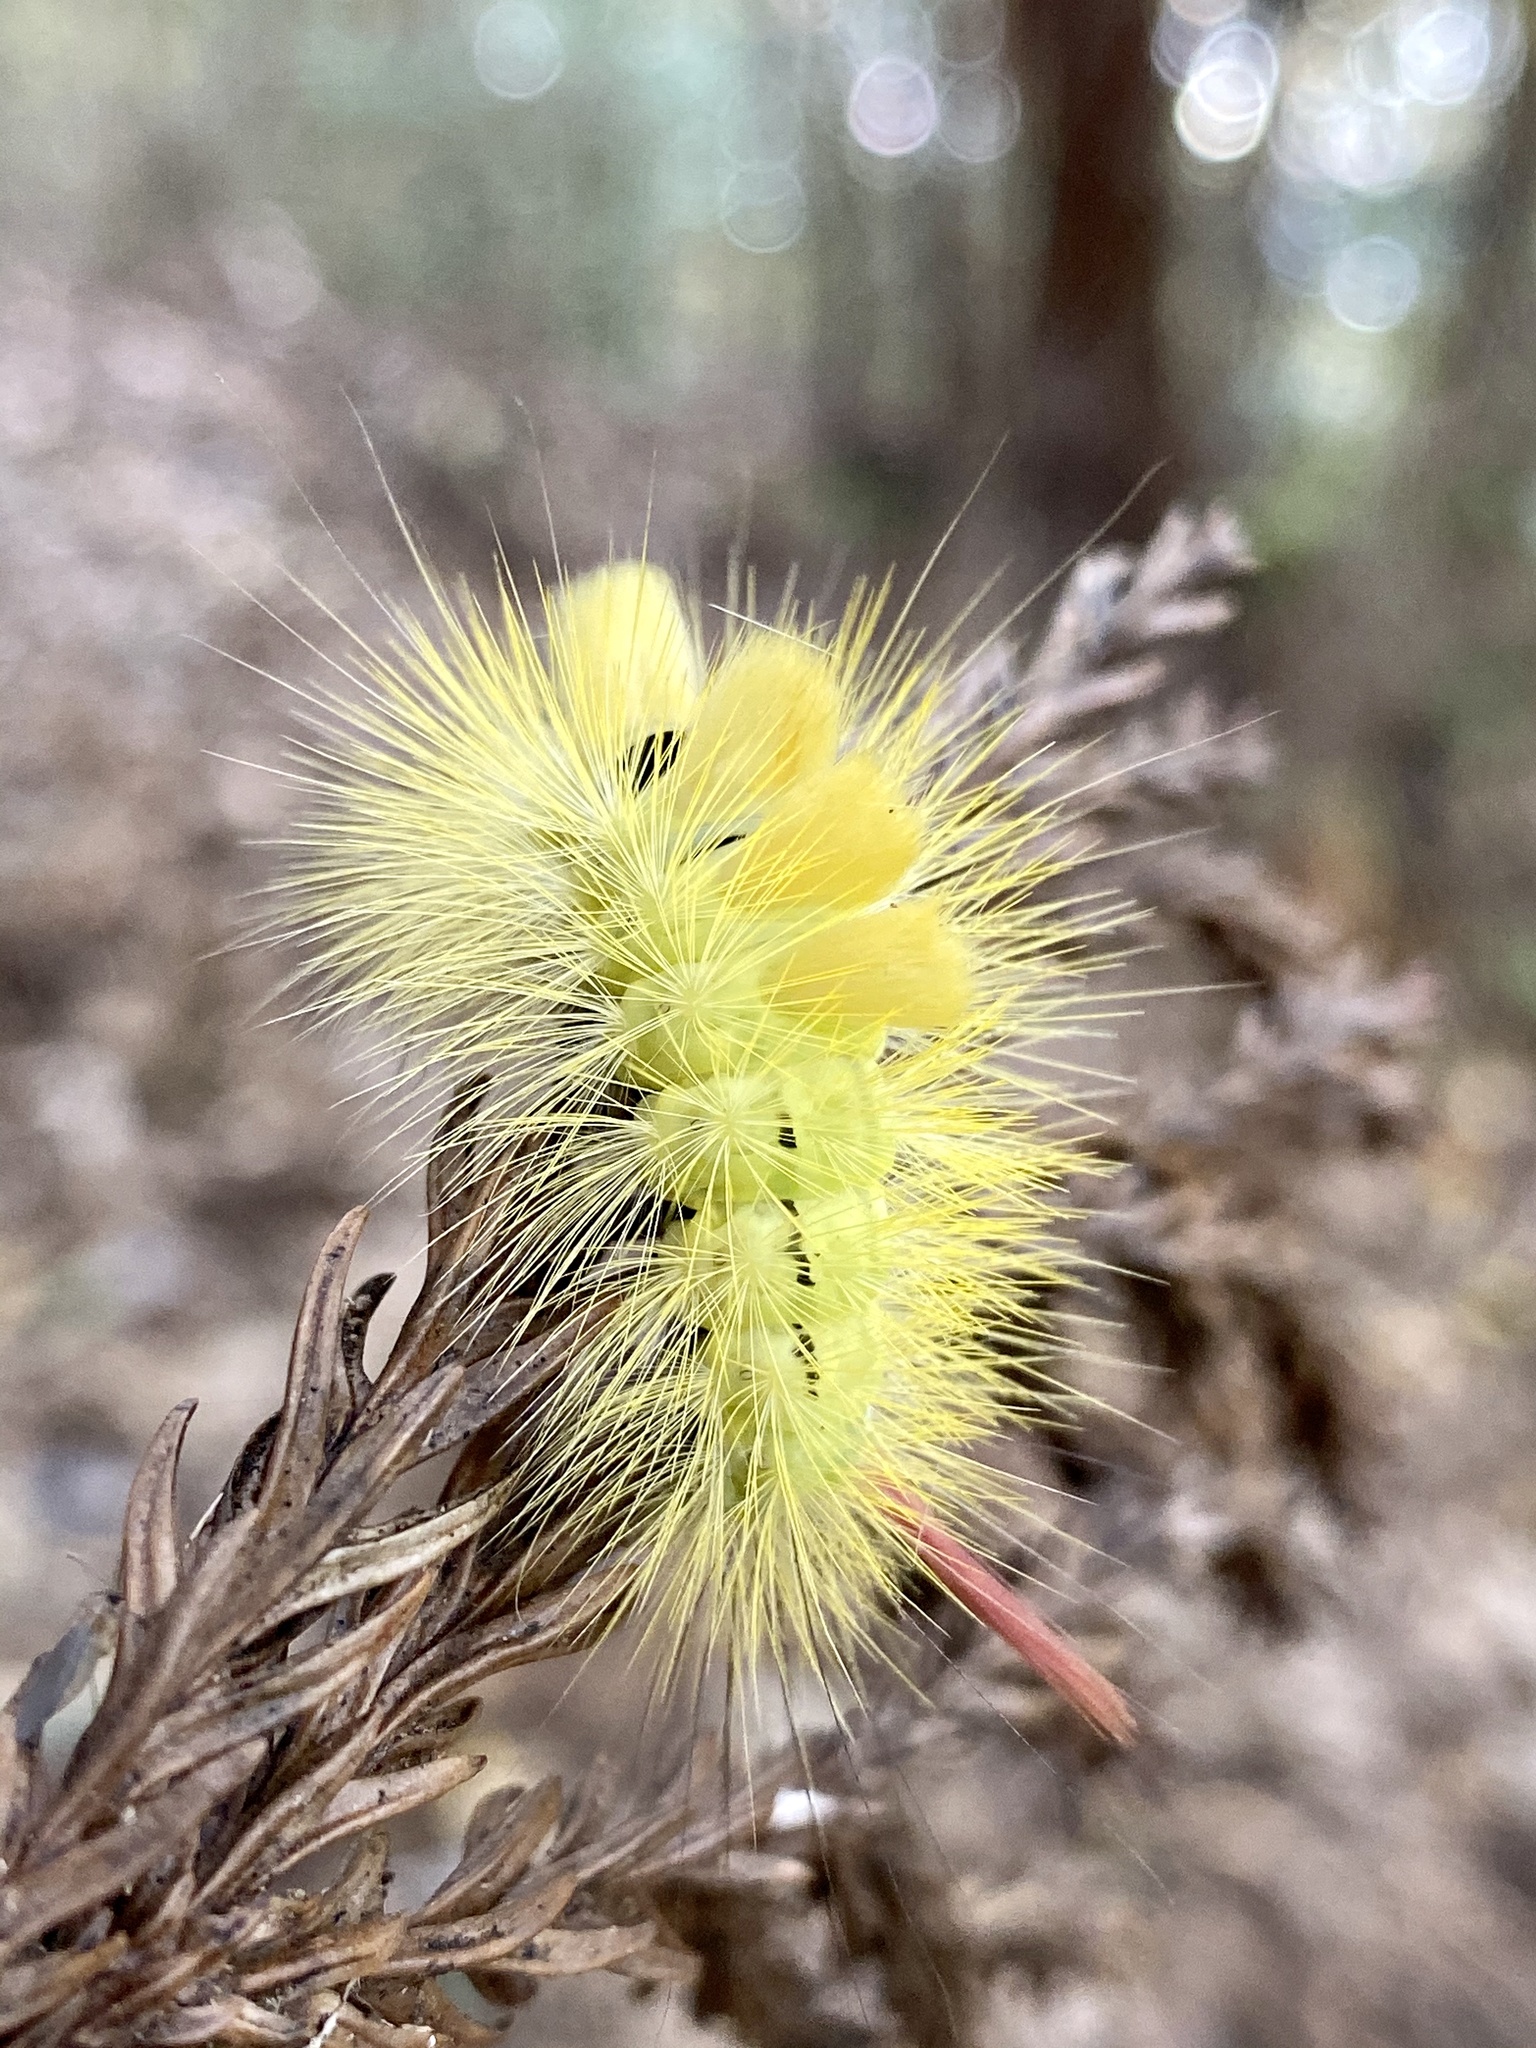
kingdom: Animalia
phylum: Arthropoda
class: Insecta
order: Lepidoptera
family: Erebidae
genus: Calliteara
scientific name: Calliteara
